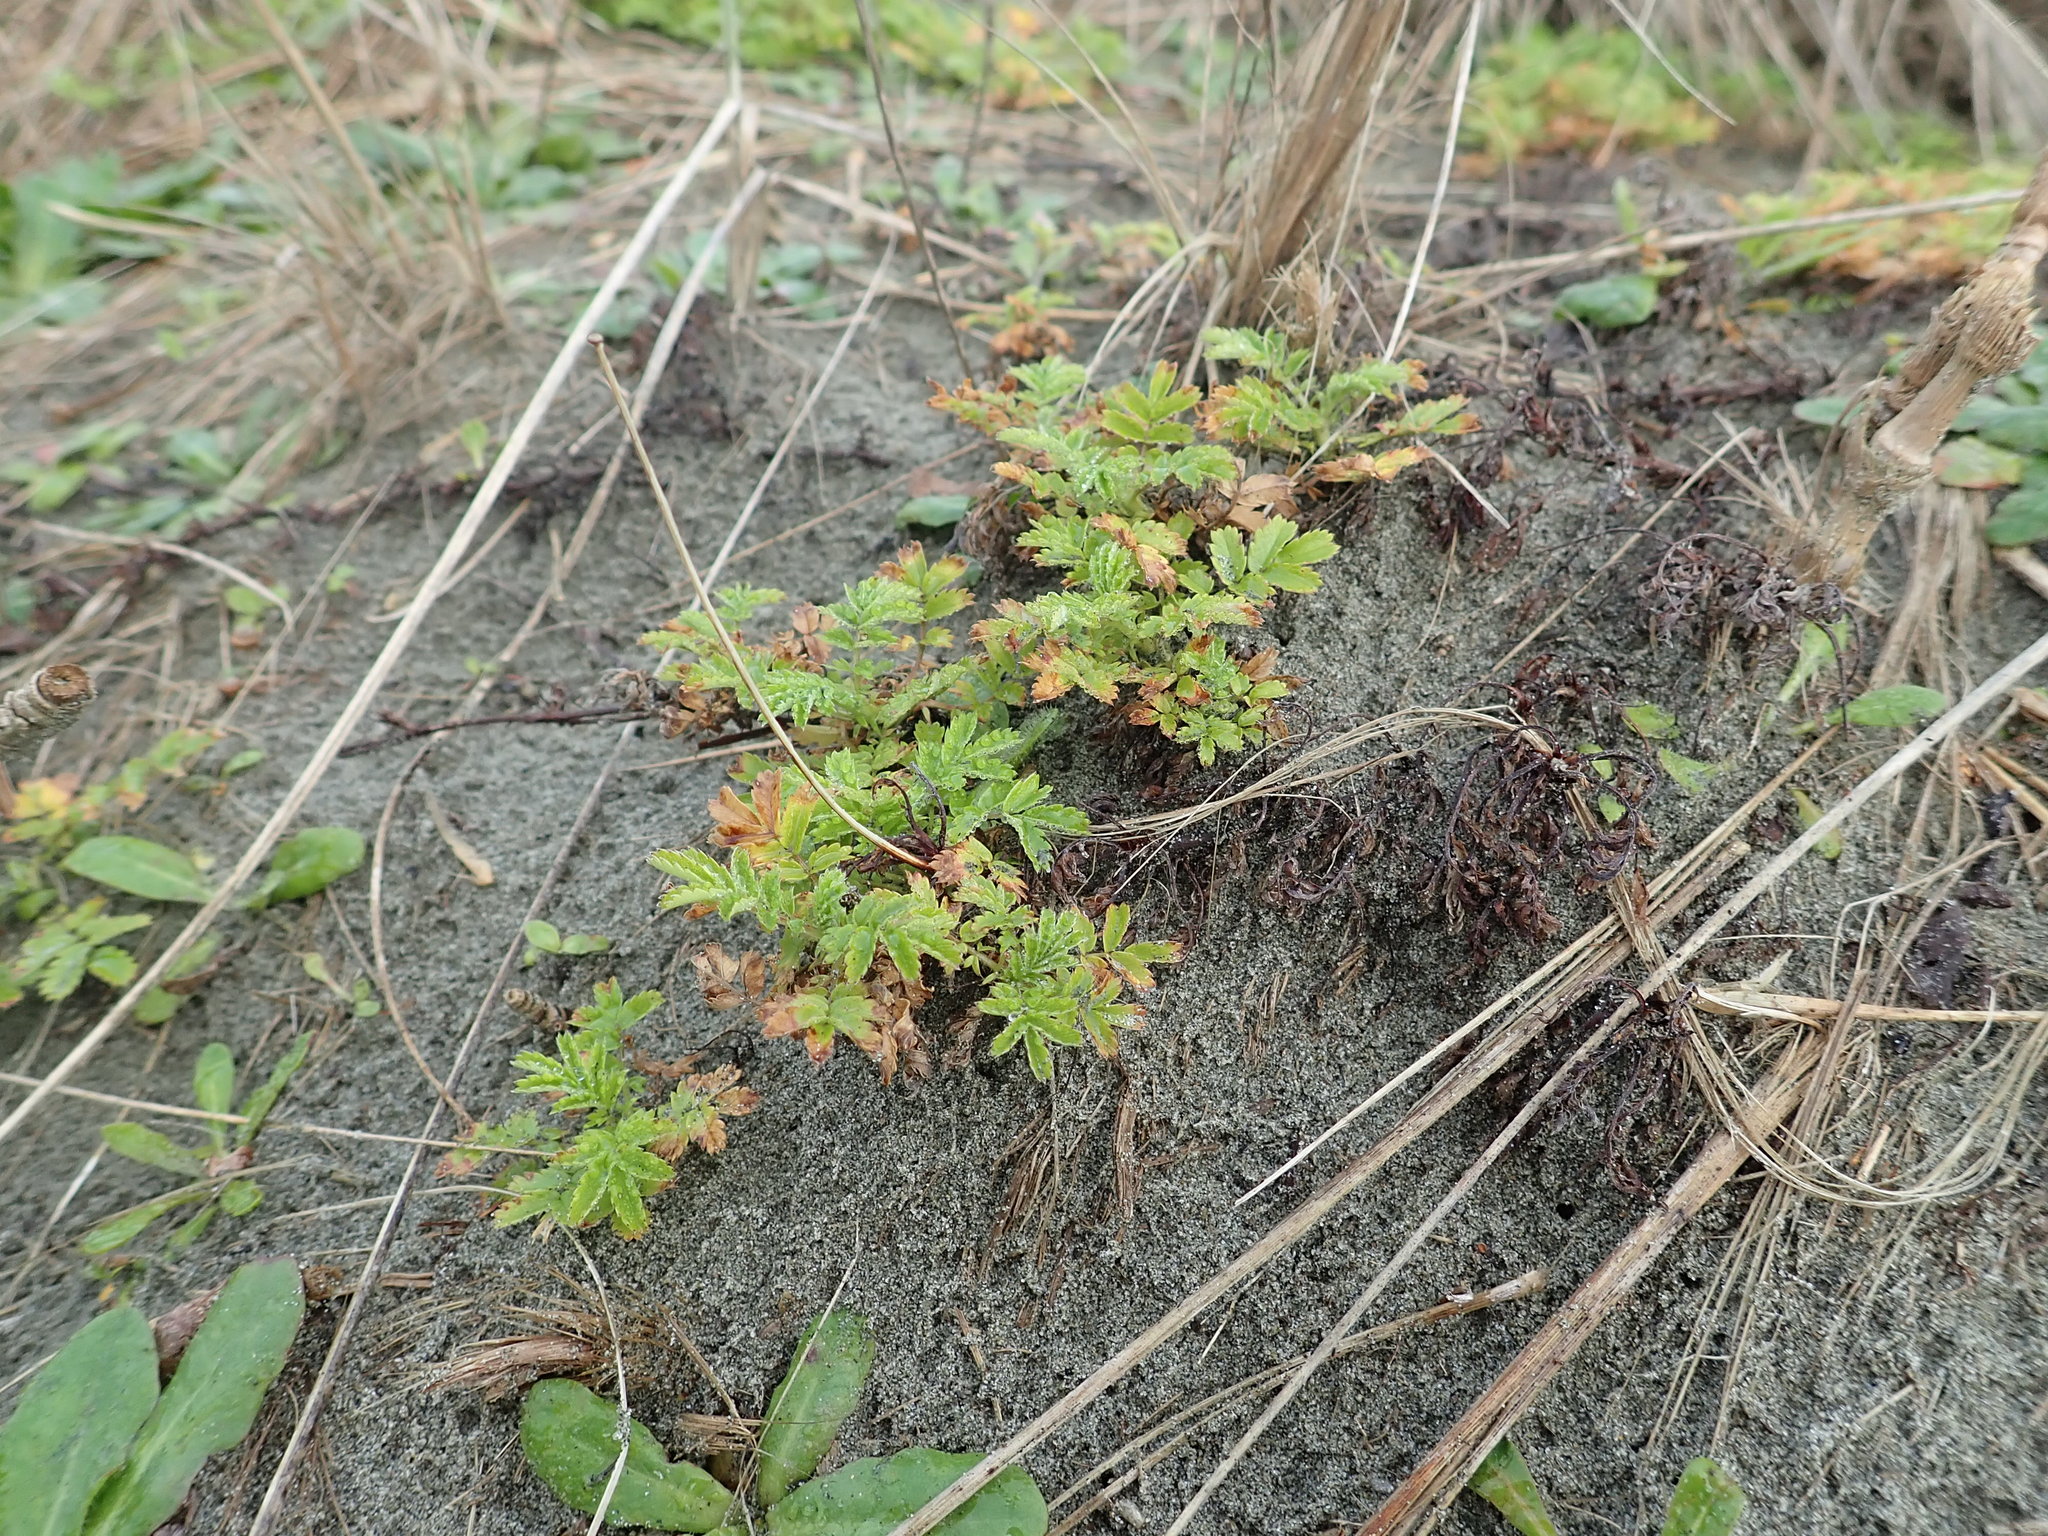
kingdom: Plantae
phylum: Tracheophyta
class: Magnoliopsida
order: Rosales
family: Rosaceae
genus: Acaena
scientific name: Acaena novae-zelandiae
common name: Pirri-pirri-bur
